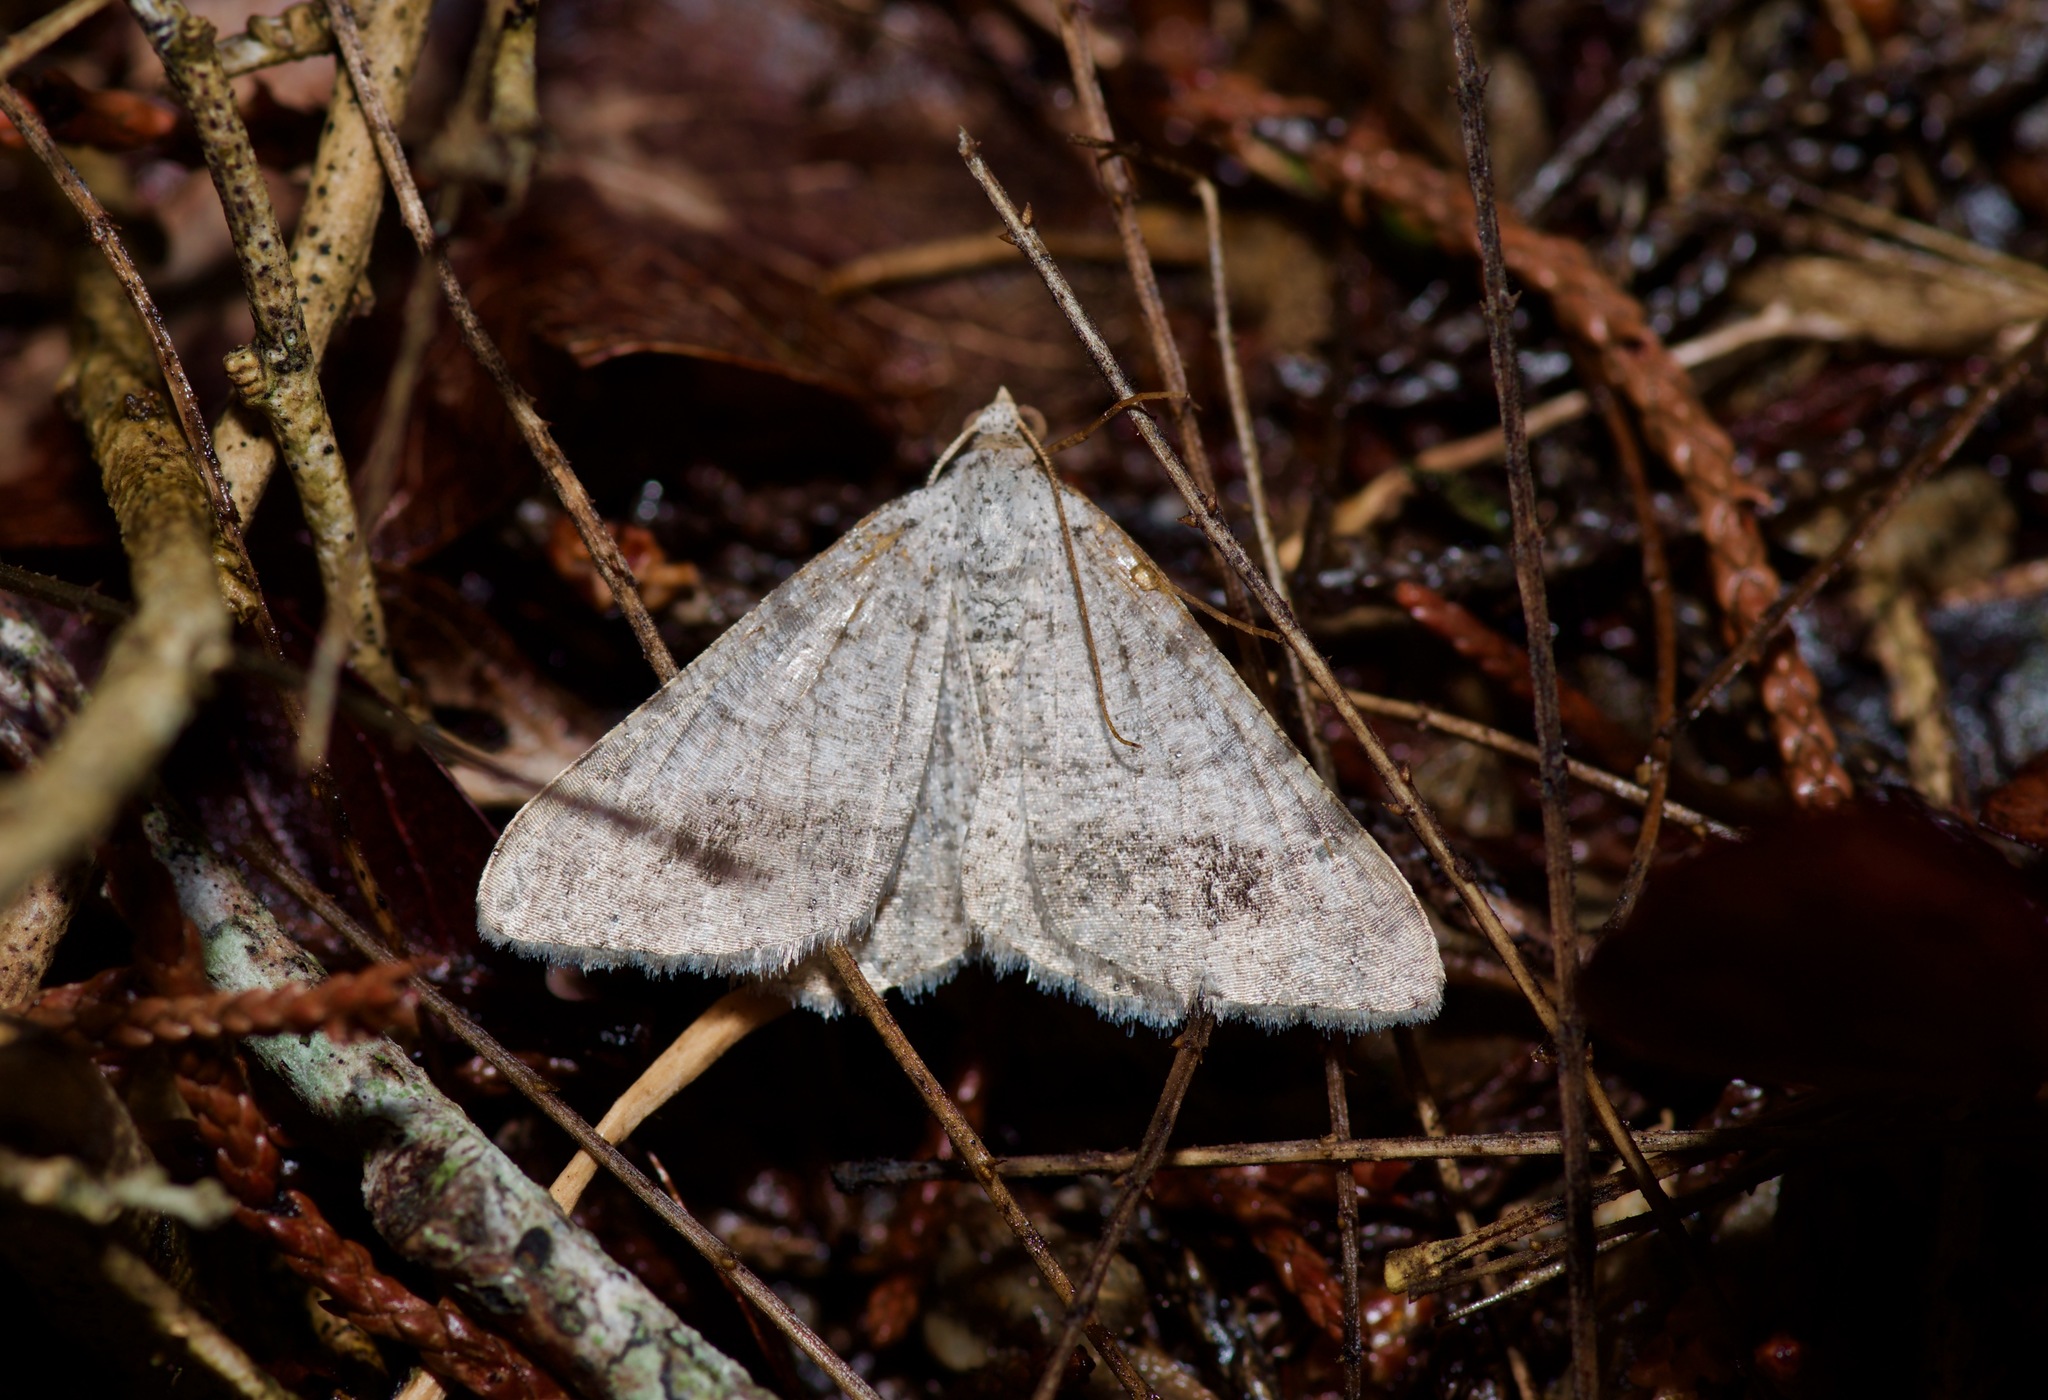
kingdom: Animalia
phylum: Arthropoda
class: Insecta
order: Lepidoptera
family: Geometridae
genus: Macaria
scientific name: Macaria abydata
